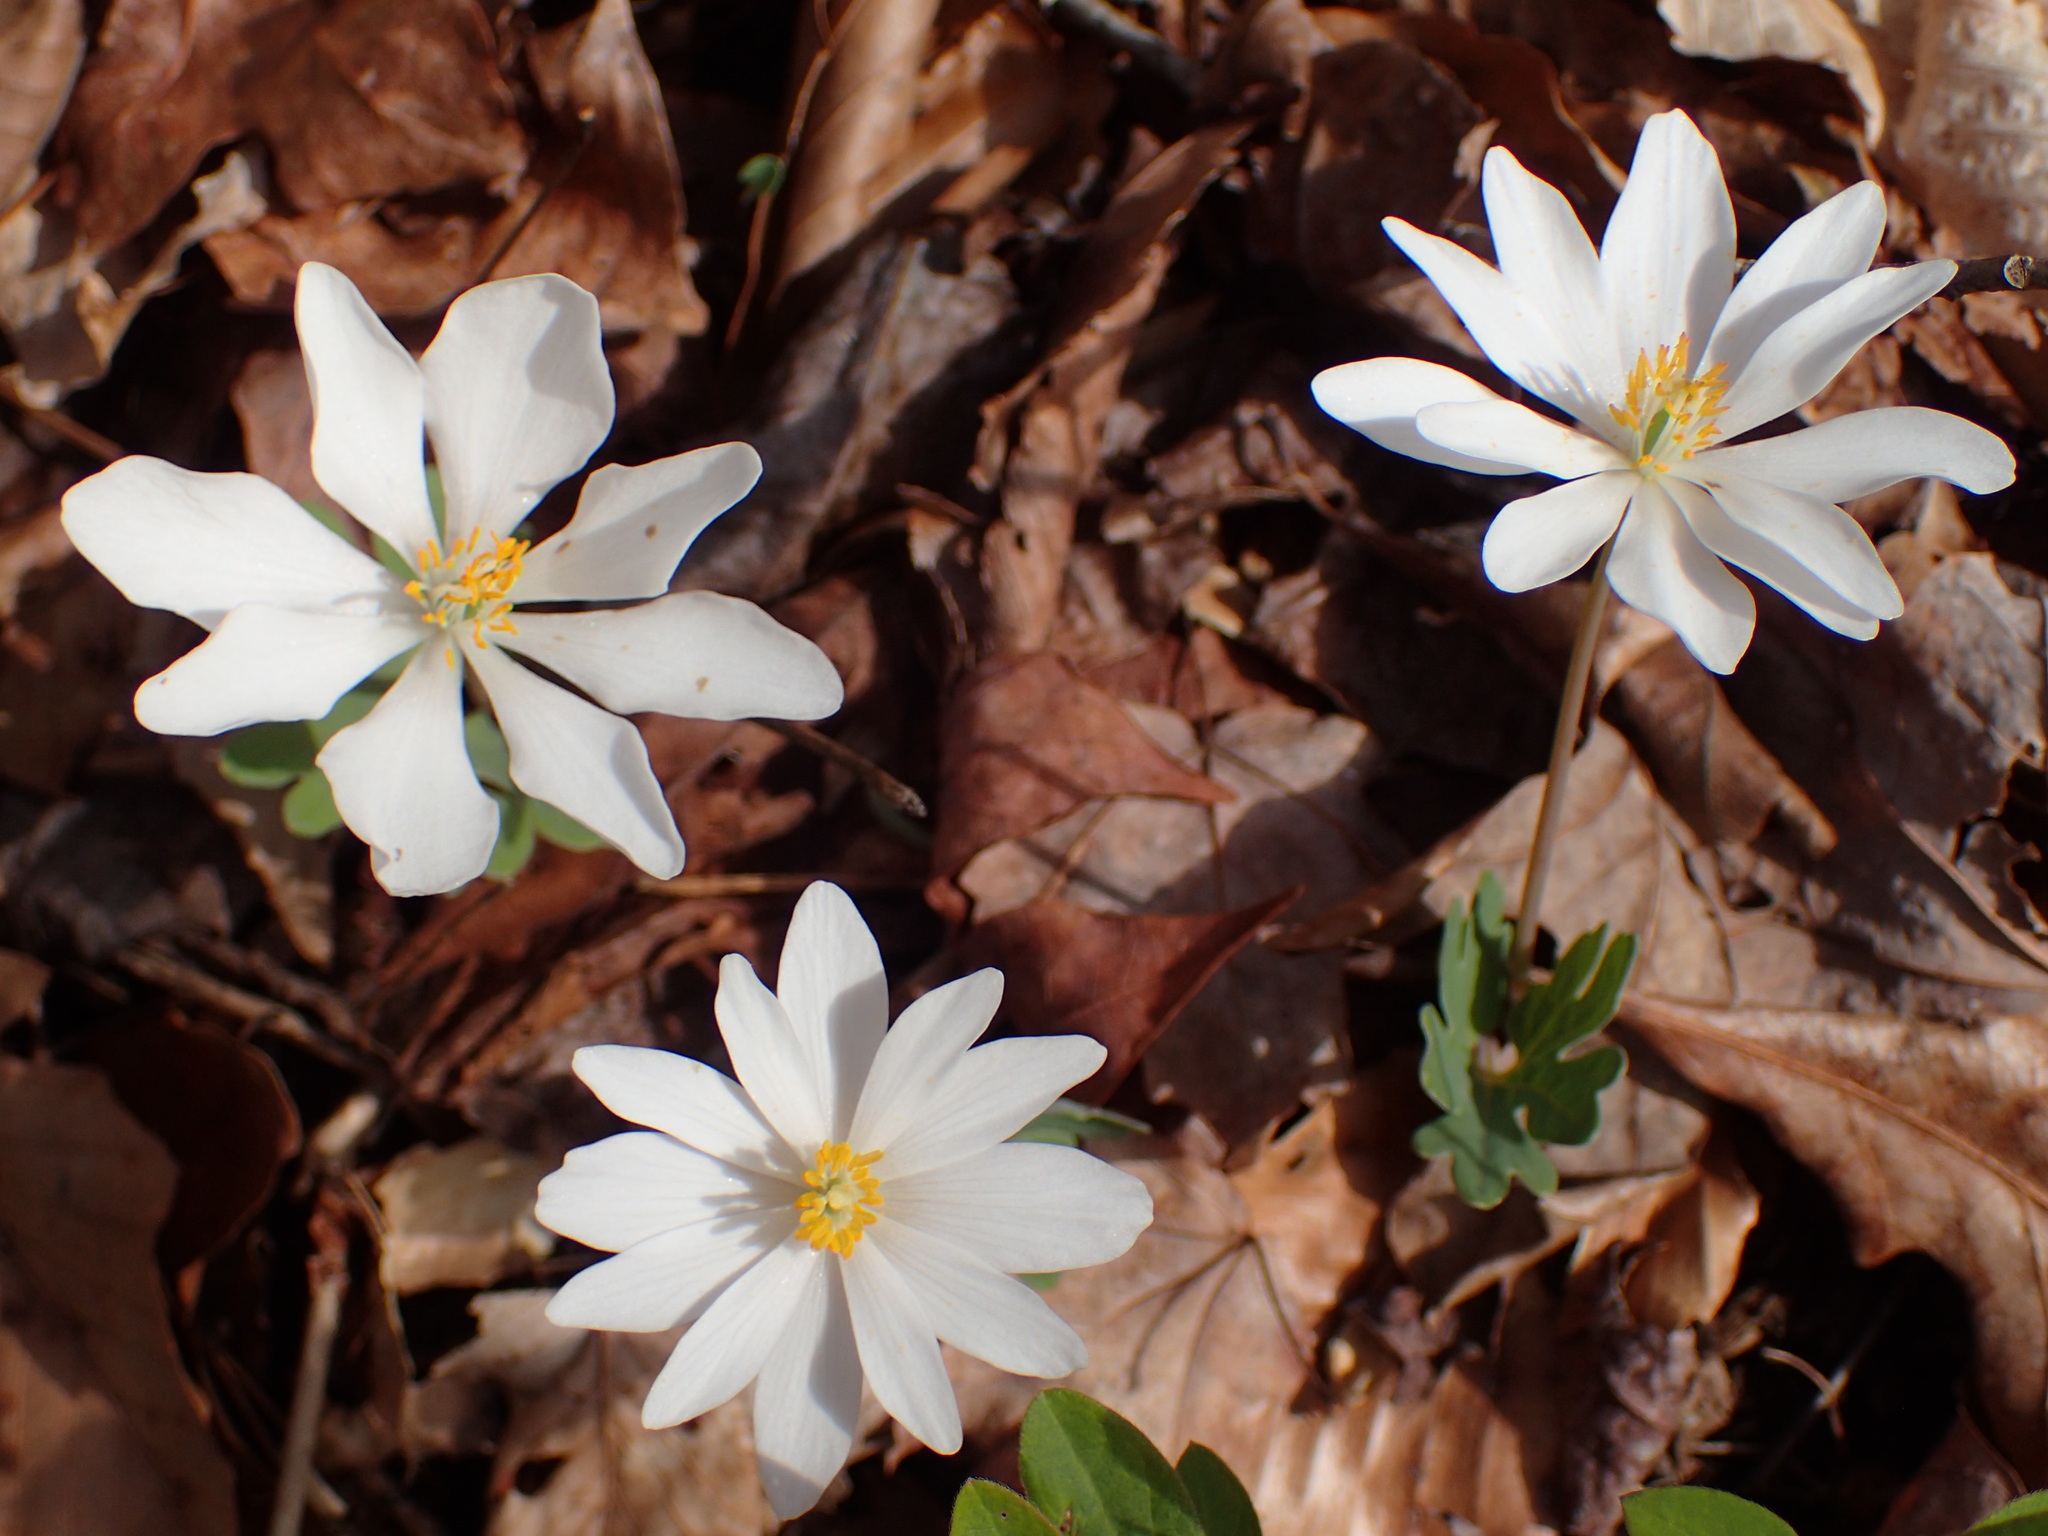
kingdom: Plantae
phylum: Tracheophyta
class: Magnoliopsida
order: Ranunculales
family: Papaveraceae
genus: Sanguinaria
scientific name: Sanguinaria canadensis
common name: Bloodroot
